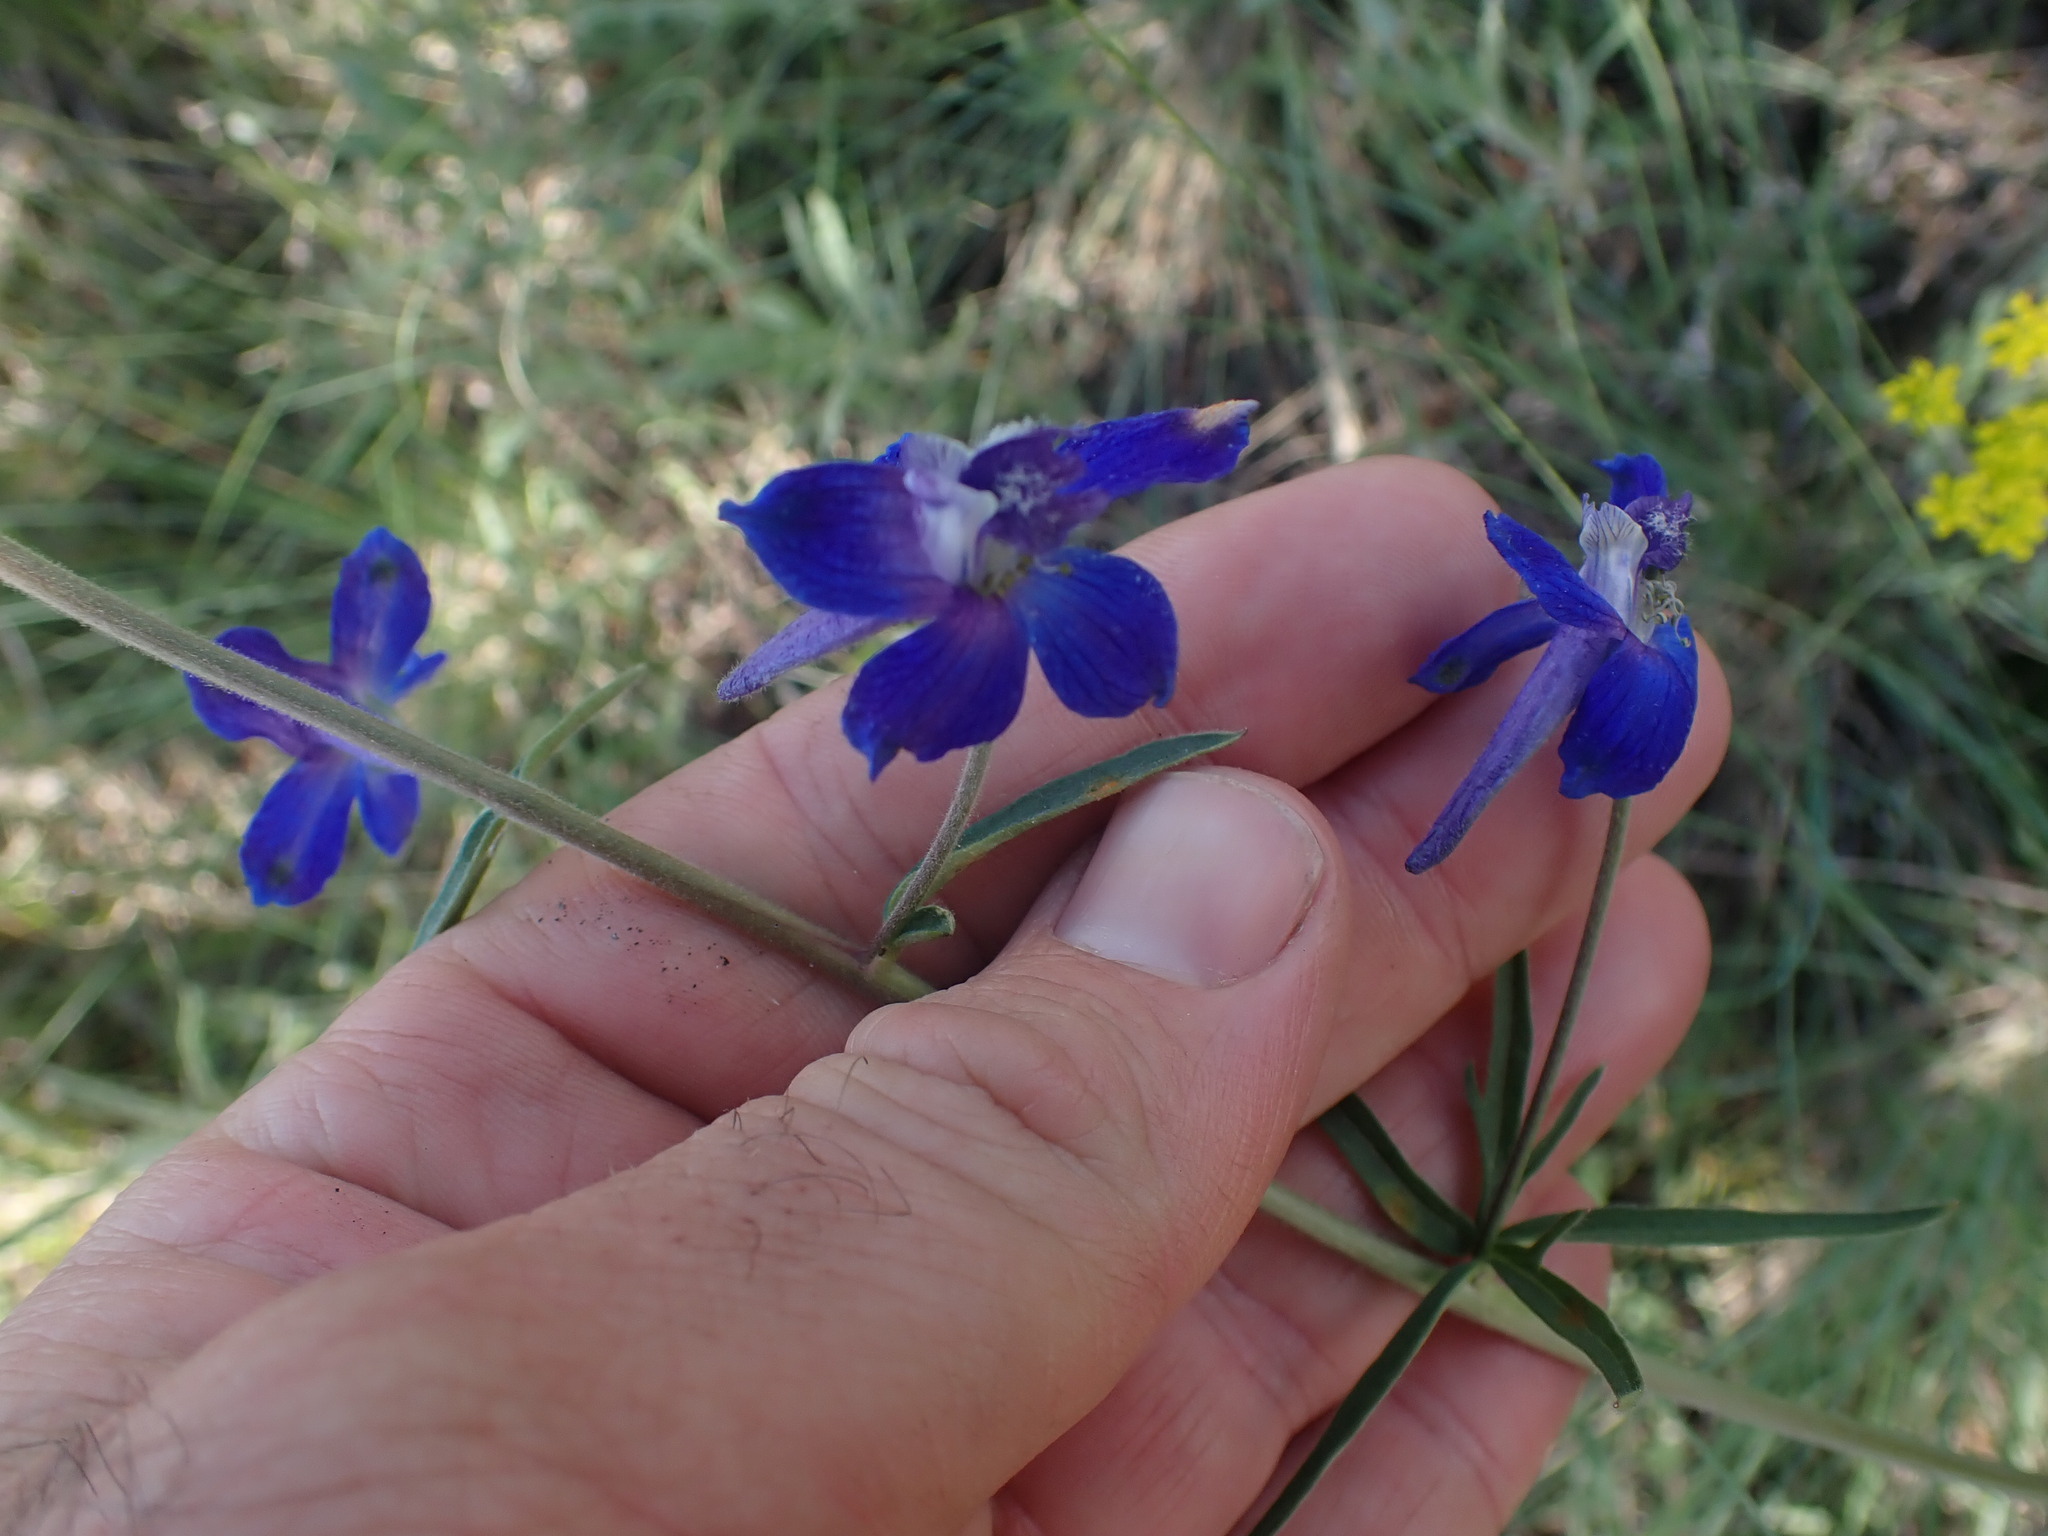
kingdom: Plantae
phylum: Tracheophyta
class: Magnoliopsida
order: Ranunculales
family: Ranunculaceae
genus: Delphinium
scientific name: Delphinium nuttallianum
